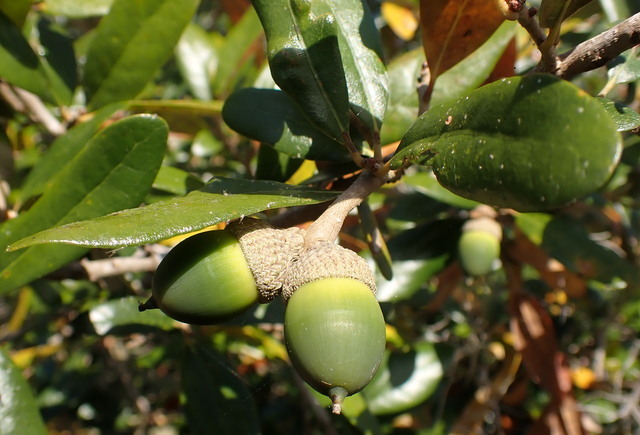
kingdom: Plantae
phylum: Tracheophyta
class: Magnoliopsida
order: Fagales
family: Fagaceae
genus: Quercus
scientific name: Quercus virginiana
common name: Southern live oak
